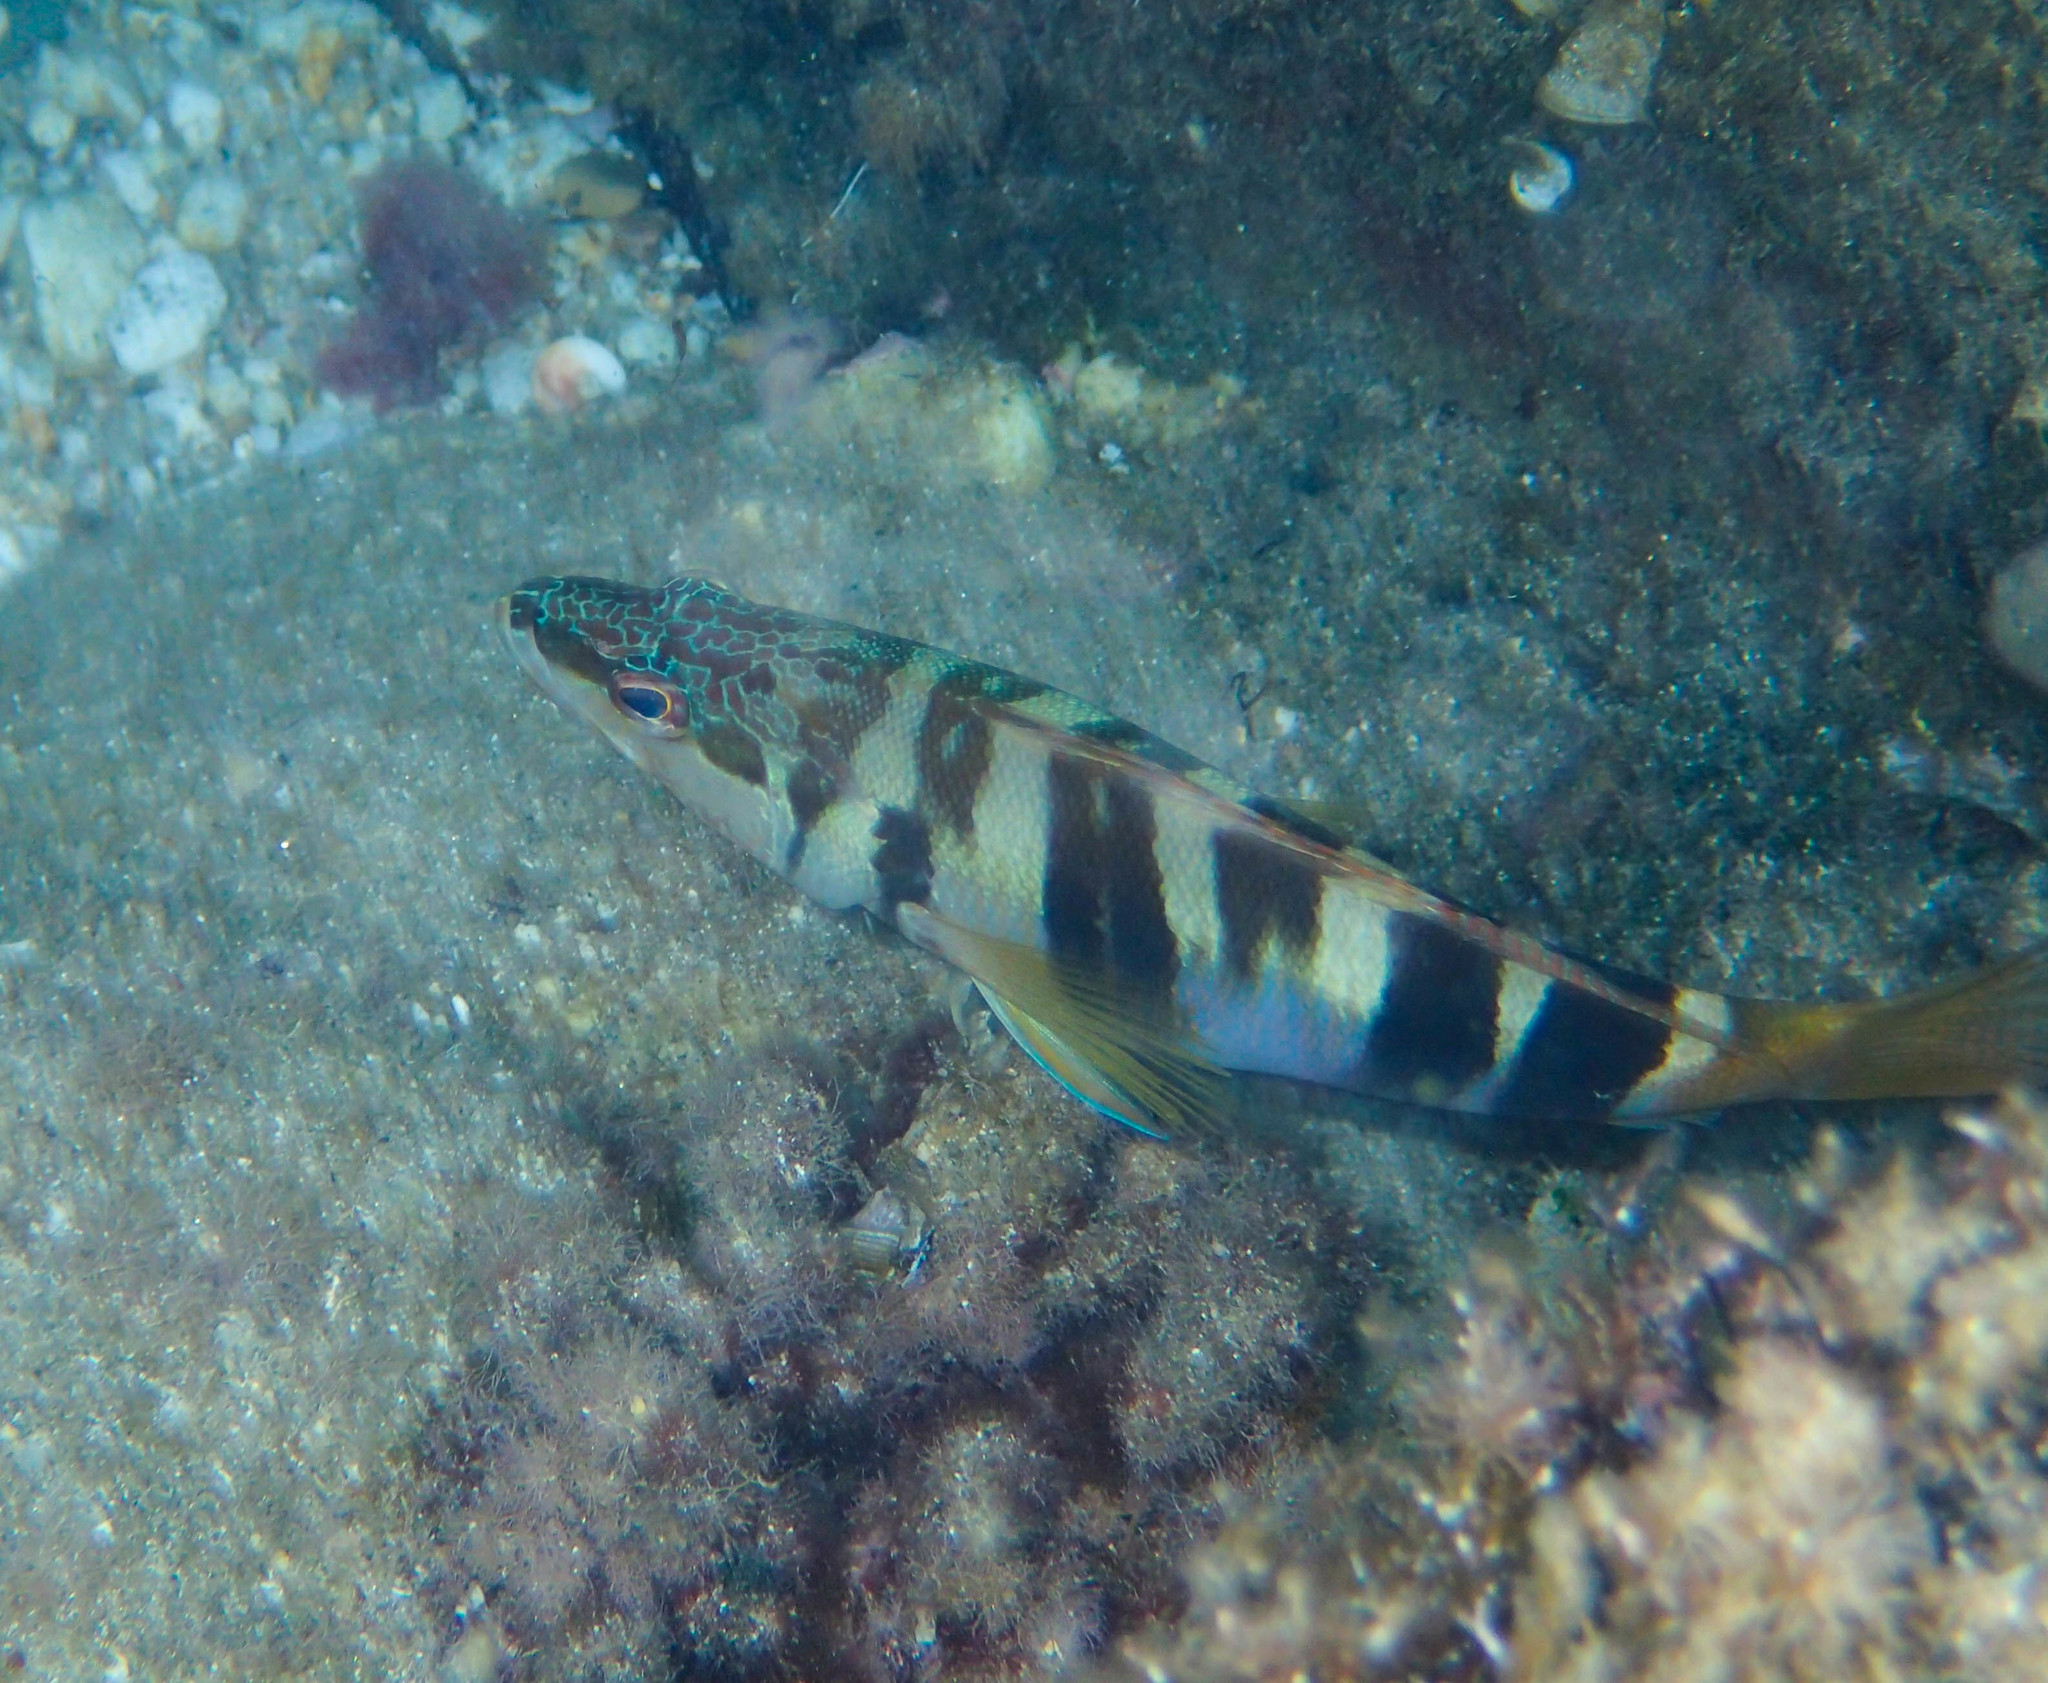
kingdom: Animalia
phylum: Chordata
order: Perciformes
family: Serranidae
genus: Serranus
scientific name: Serranus scriba
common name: Painted comber
